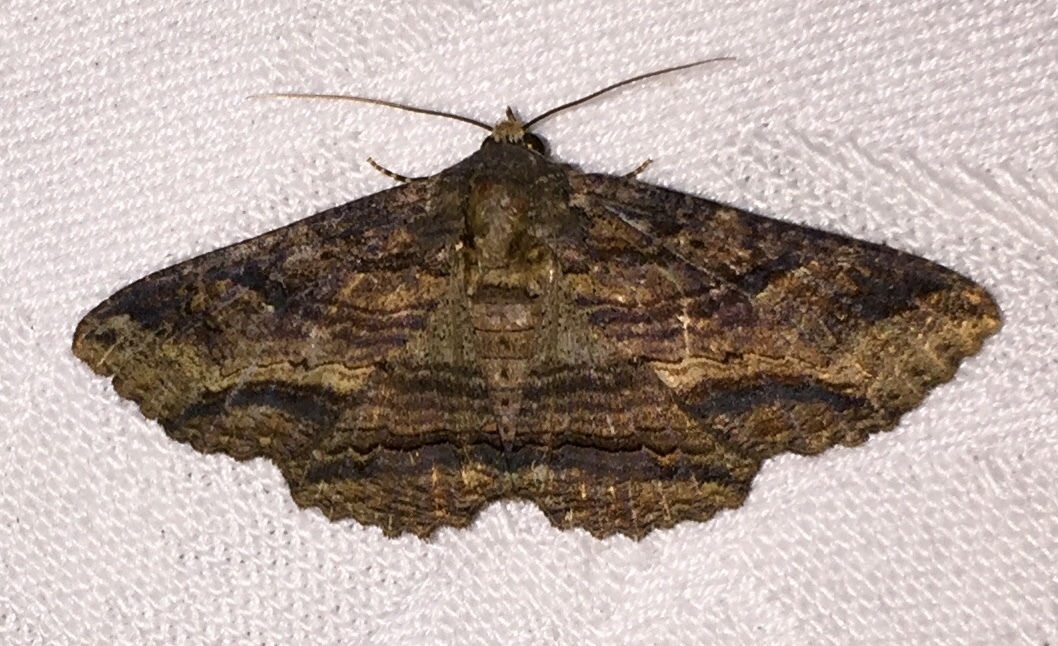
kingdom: Animalia
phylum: Arthropoda
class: Insecta
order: Lepidoptera
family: Erebidae
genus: Zale
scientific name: Zale lunata
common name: Lunate zale moth
